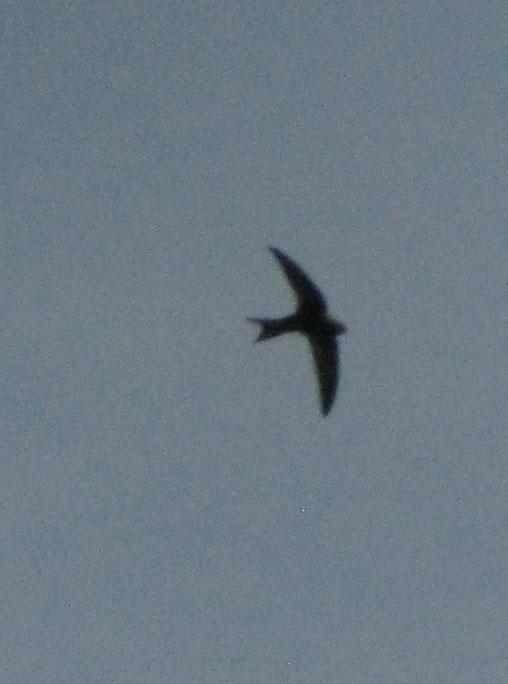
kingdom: Animalia
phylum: Chordata
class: Aves
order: Apodiformes
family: Apodidae
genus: Apus
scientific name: Apus apus
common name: Common swift
